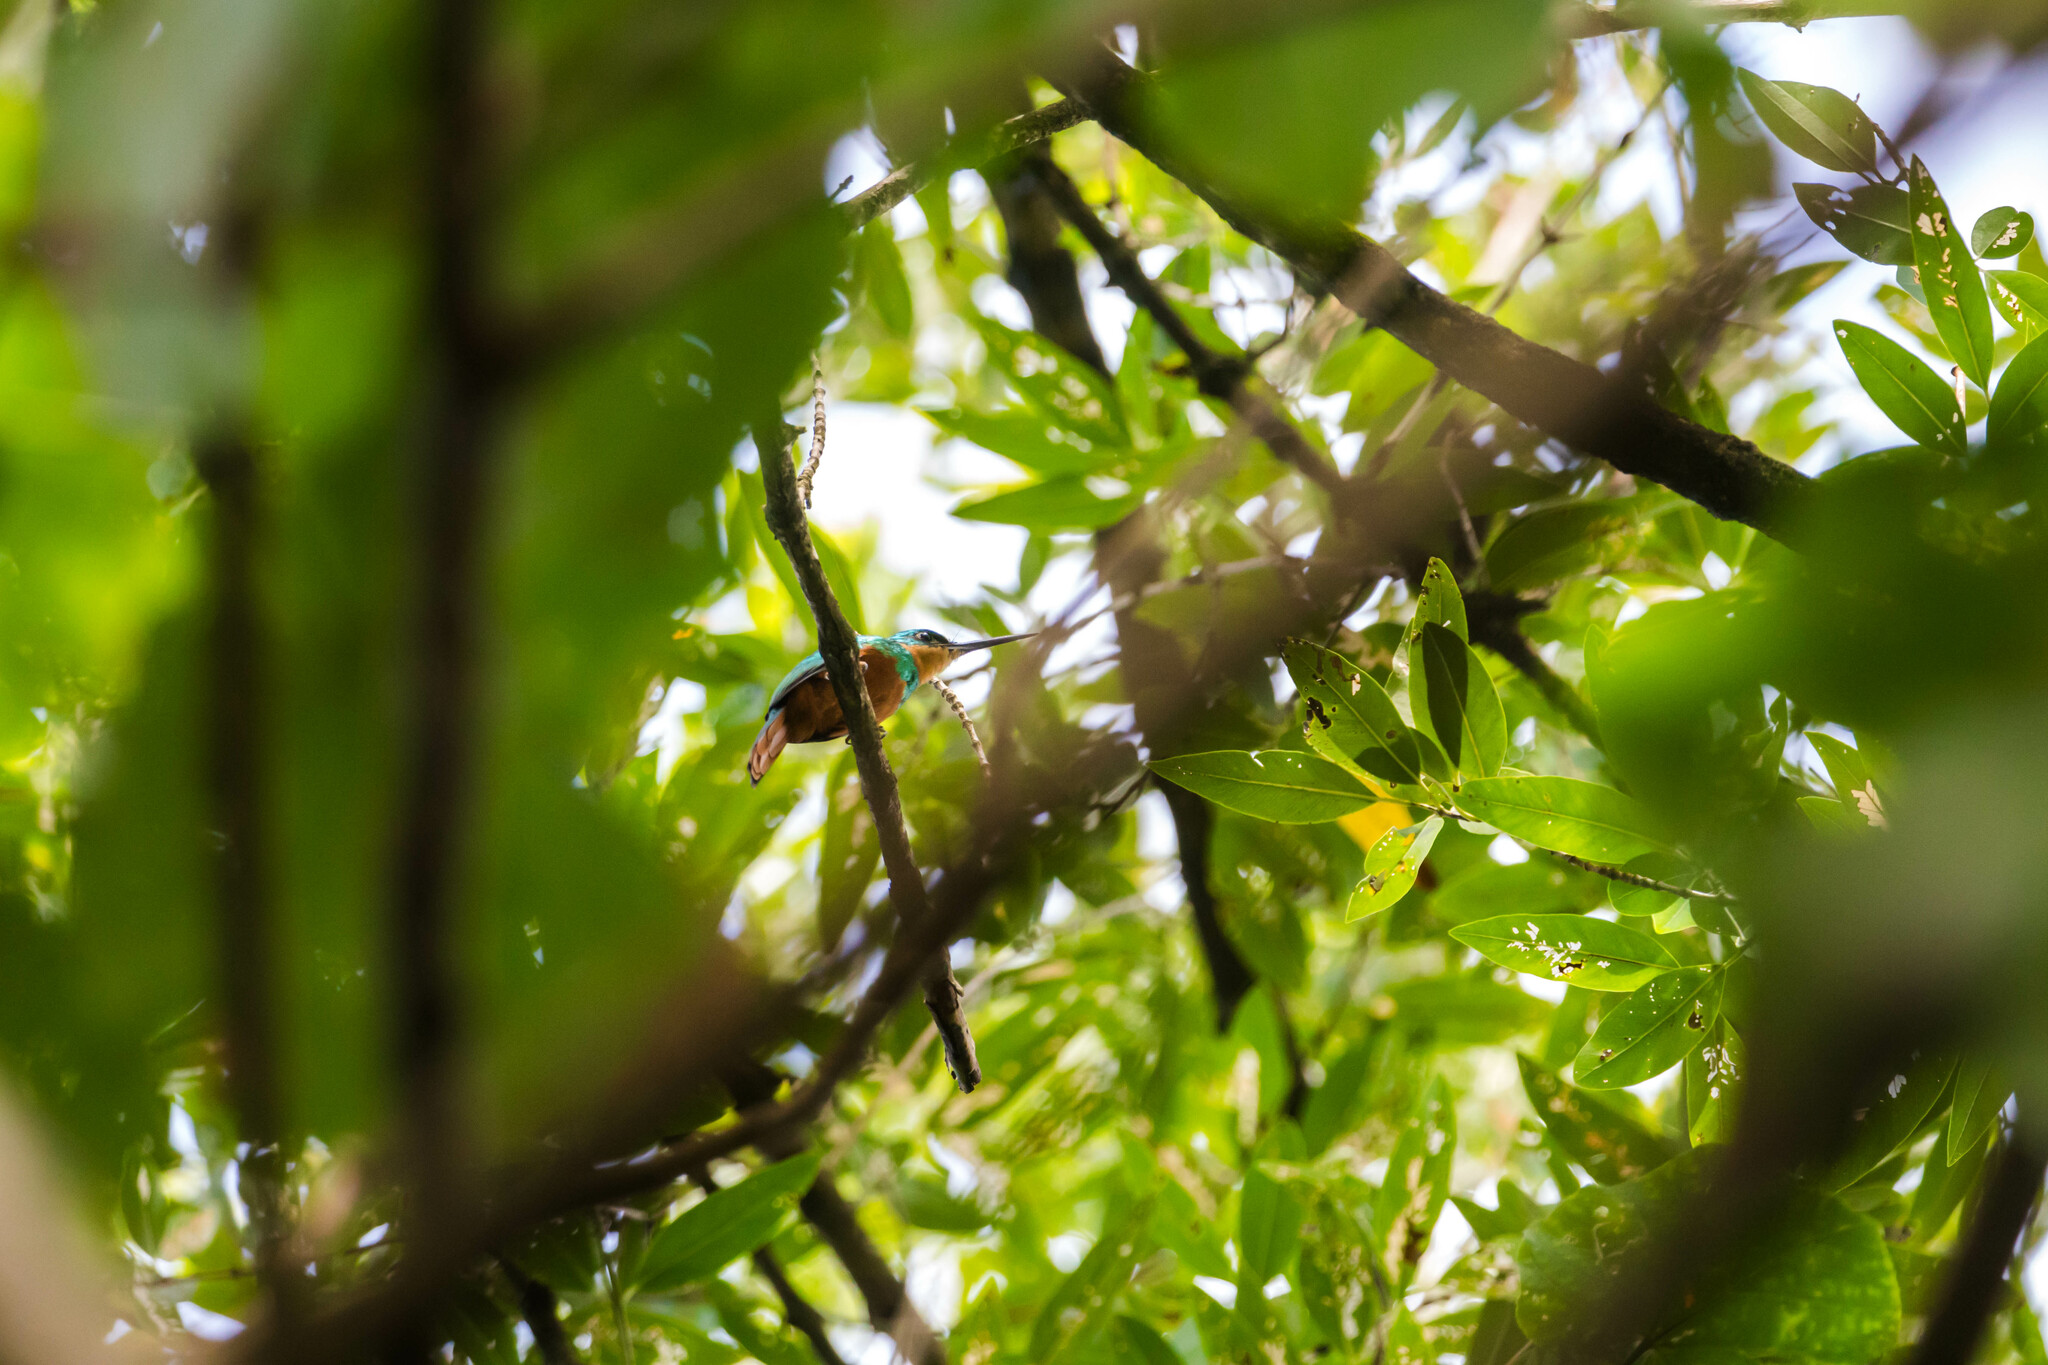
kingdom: Animalia
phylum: Chordata
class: Aves
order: Piciformes
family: Galbulidae
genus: Galbula
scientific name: Galbula ruficauda
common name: Rufous-tailed jacamar
